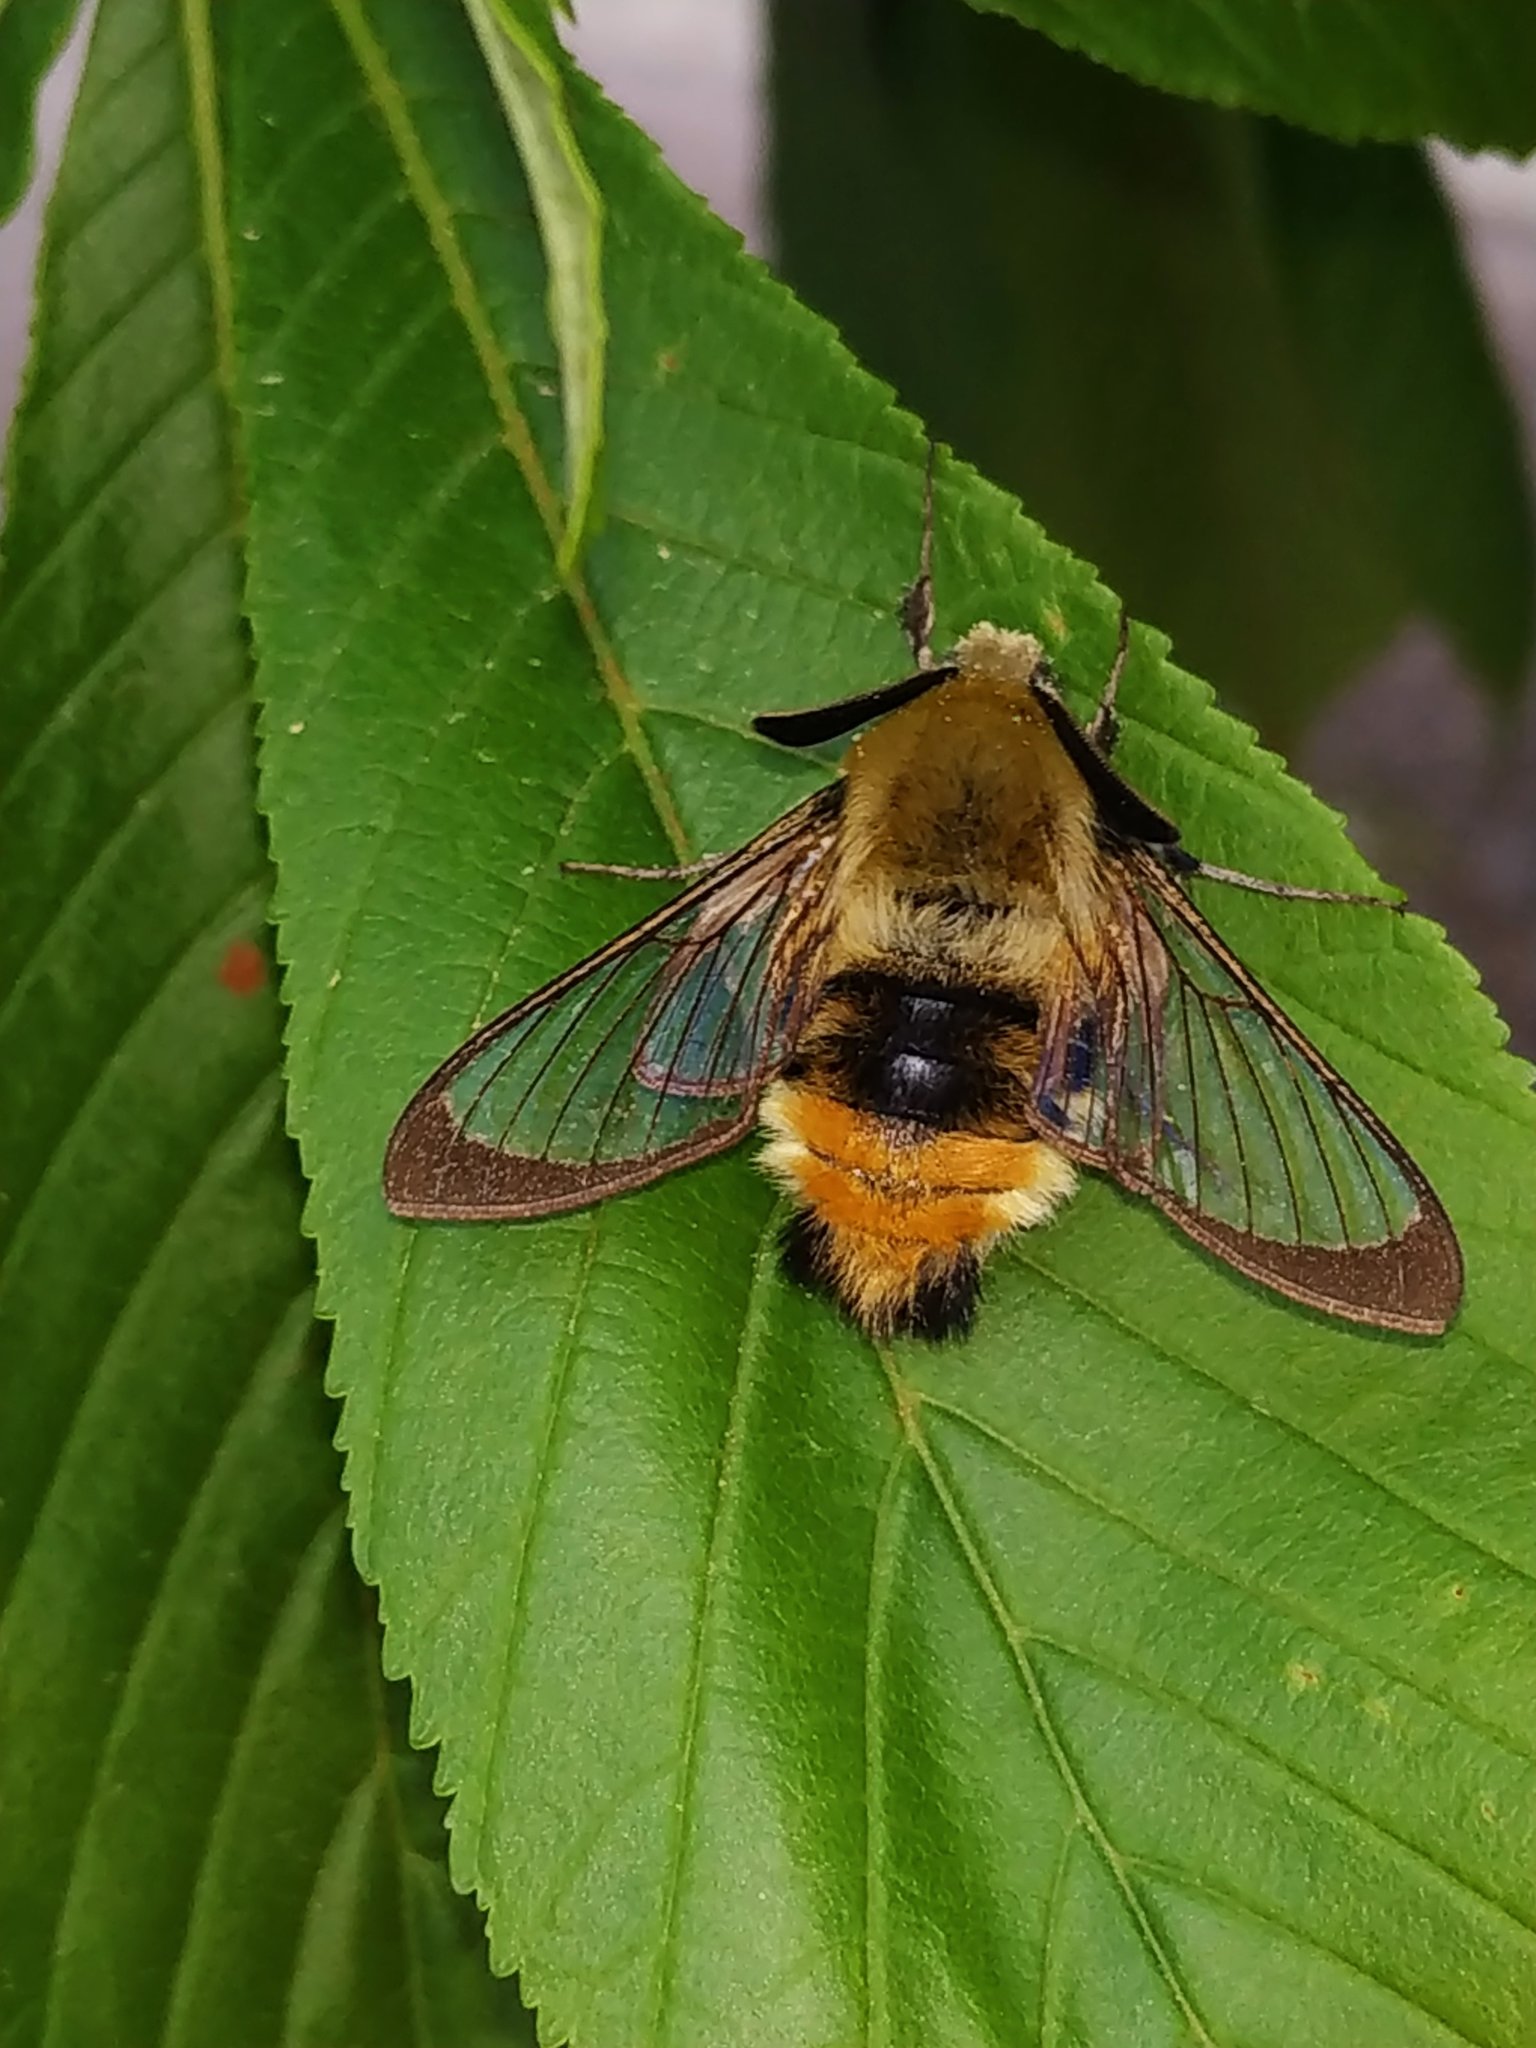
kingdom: Animalia
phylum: Arthropoda
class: Insecta
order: Lepidoptera
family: Sphingidae
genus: Hemaris
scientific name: Hemaris tityus
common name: Narrow-bordered bee hawk-moth
